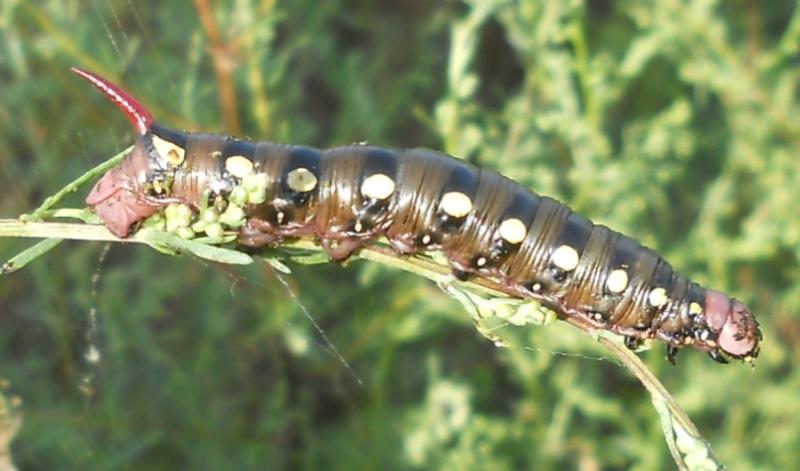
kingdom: Animalia
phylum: Arthropoda
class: Insecta
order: Lepidoptera
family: Sphingidae
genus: Hyles
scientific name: Hyles gallii
